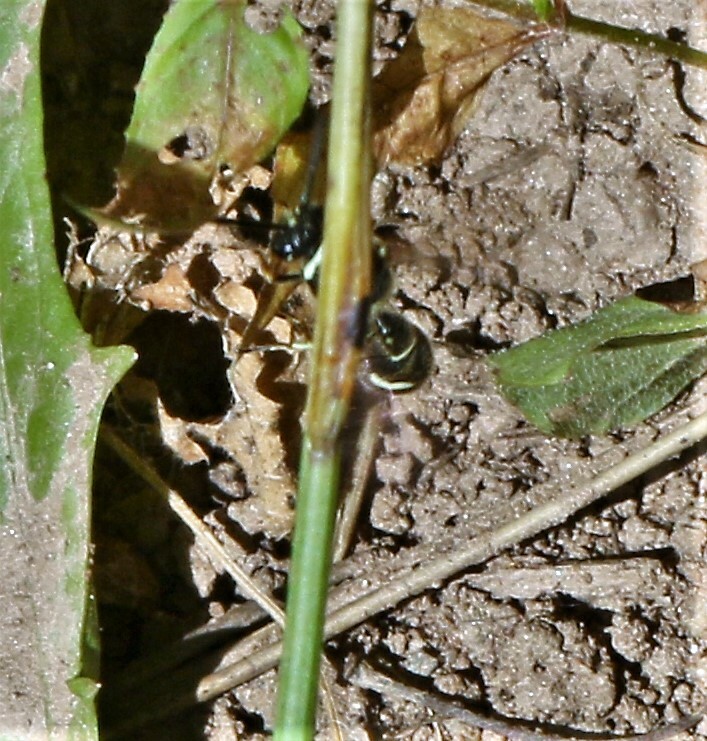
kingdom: Animalia
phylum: Arthropoda
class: Insecta
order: Hymenoptera
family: Vespidae
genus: Eumenes
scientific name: Eumenes crucifera
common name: Cross potter wasp
